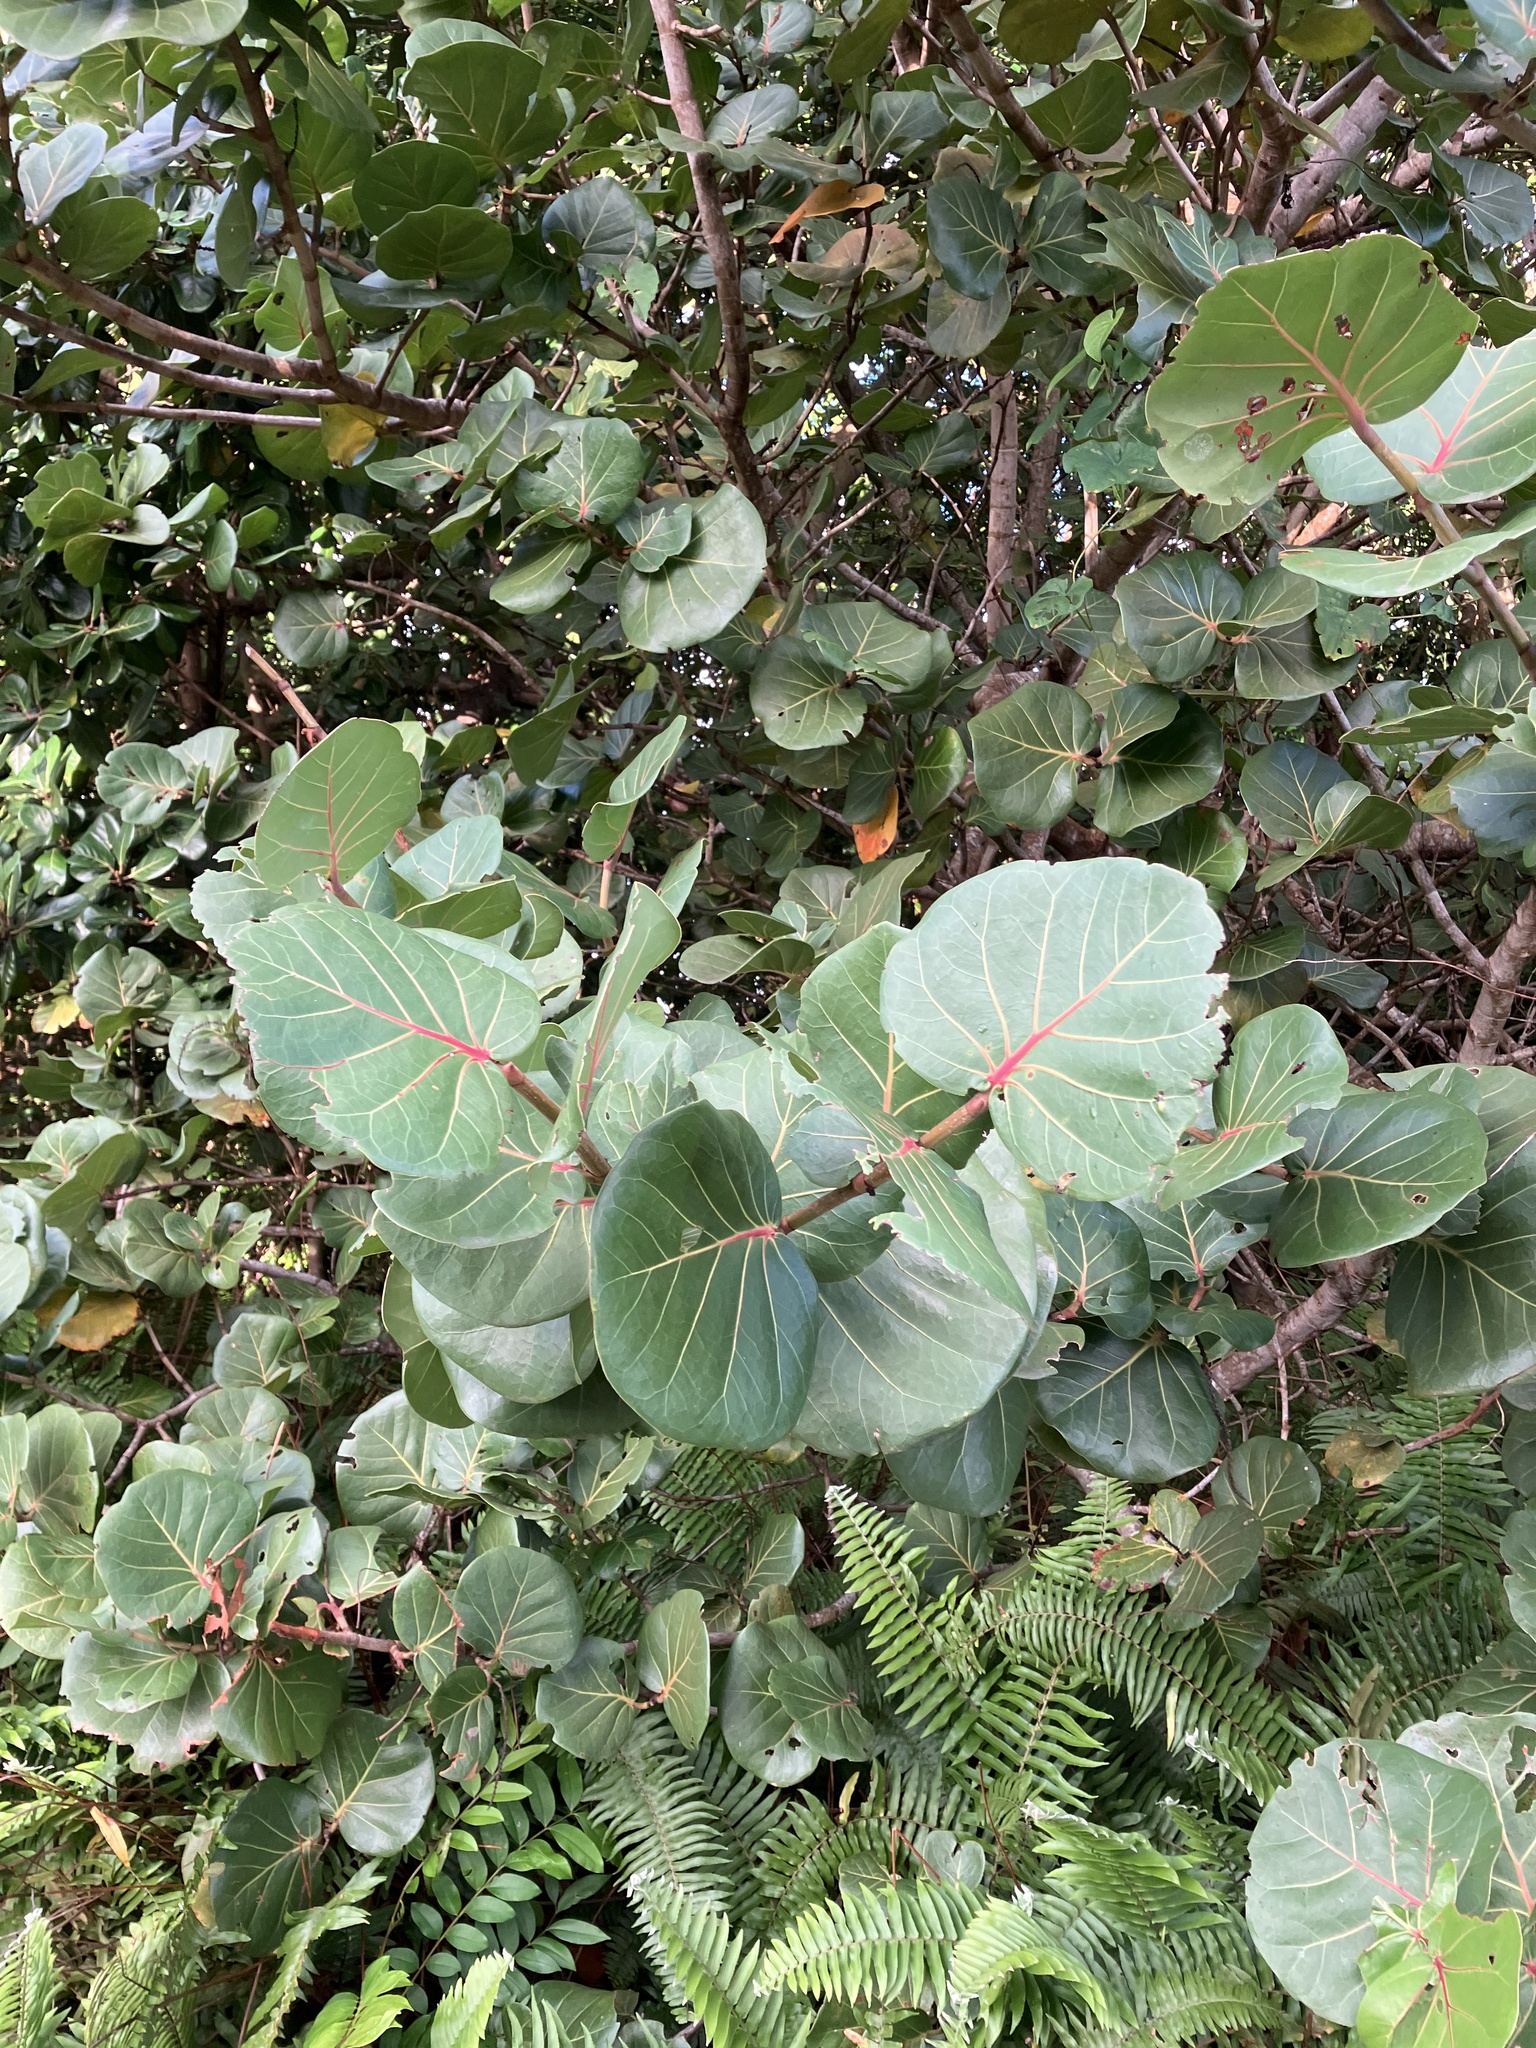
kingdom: Plantae
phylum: Tracheophyta
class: Magnoliopsida
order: Caryophyllales
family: Polygonaceae
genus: Coccoloba
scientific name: Coccoloba uvifera
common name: Seagrape
